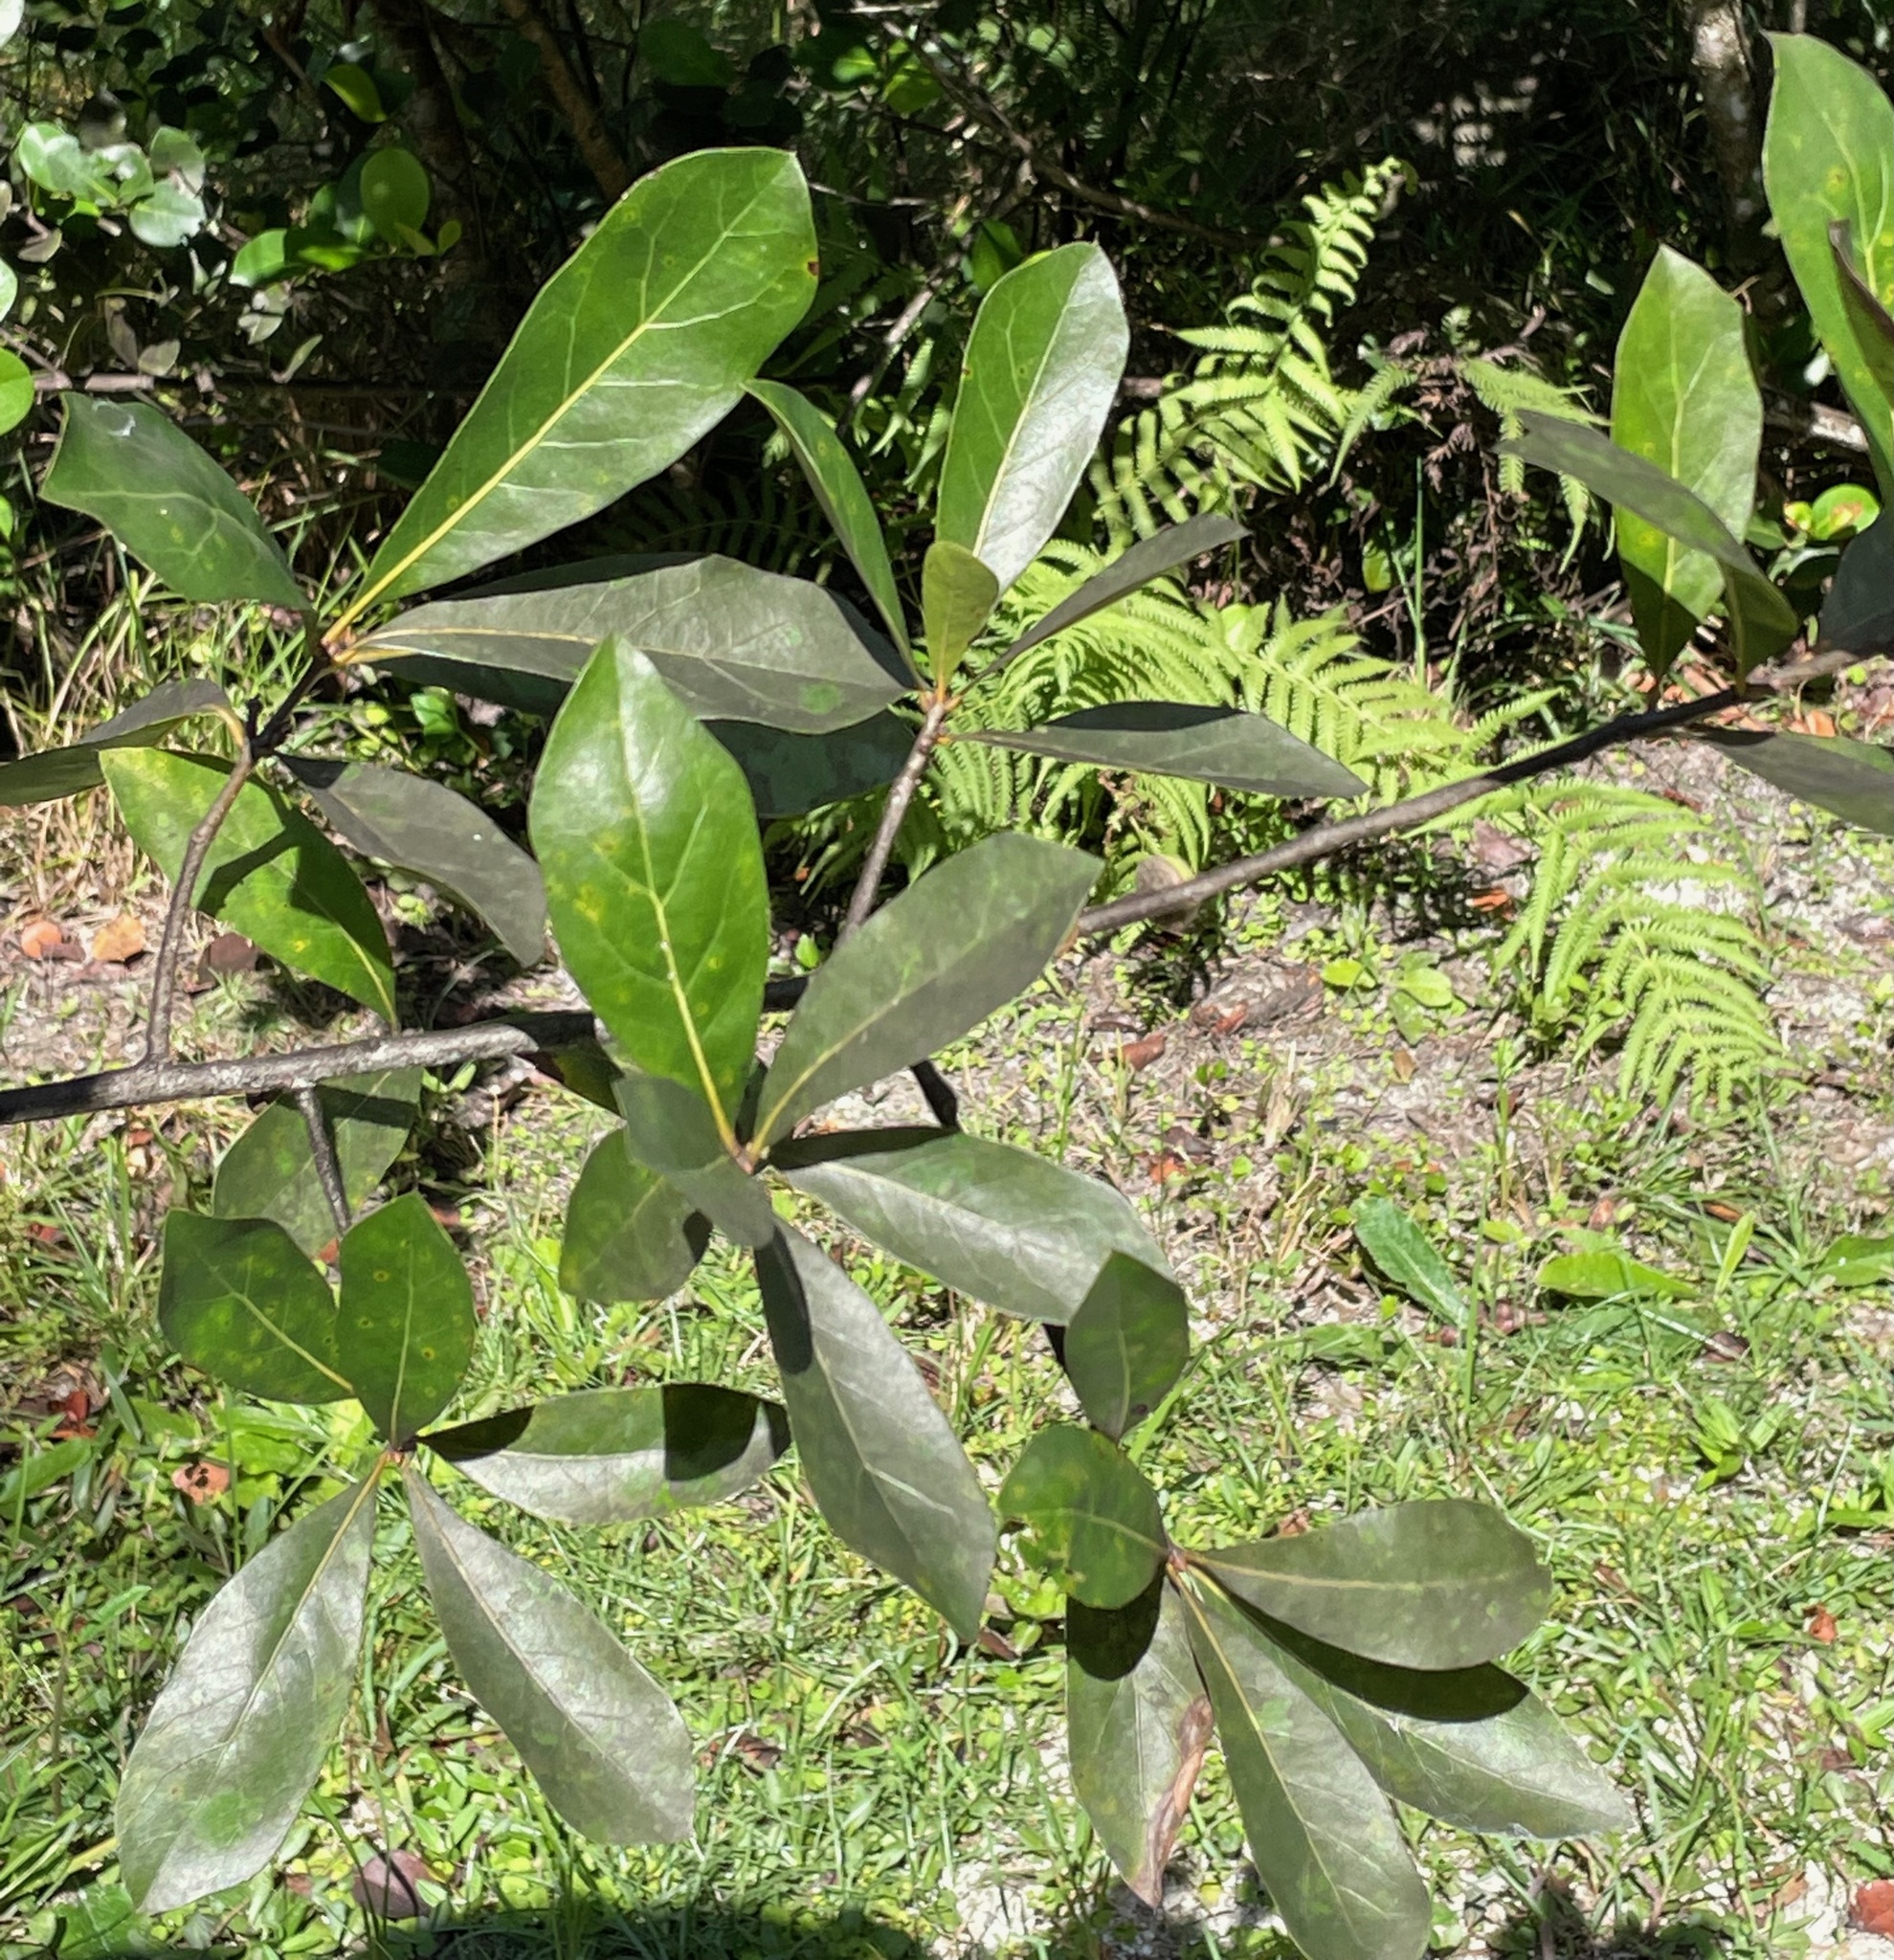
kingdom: Plantae
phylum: Tracheophyta
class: Magnoliopsida
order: Fagales
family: Fagaceae
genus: Quercus
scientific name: Quercus laurifolia
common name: Swamp laurel oak
